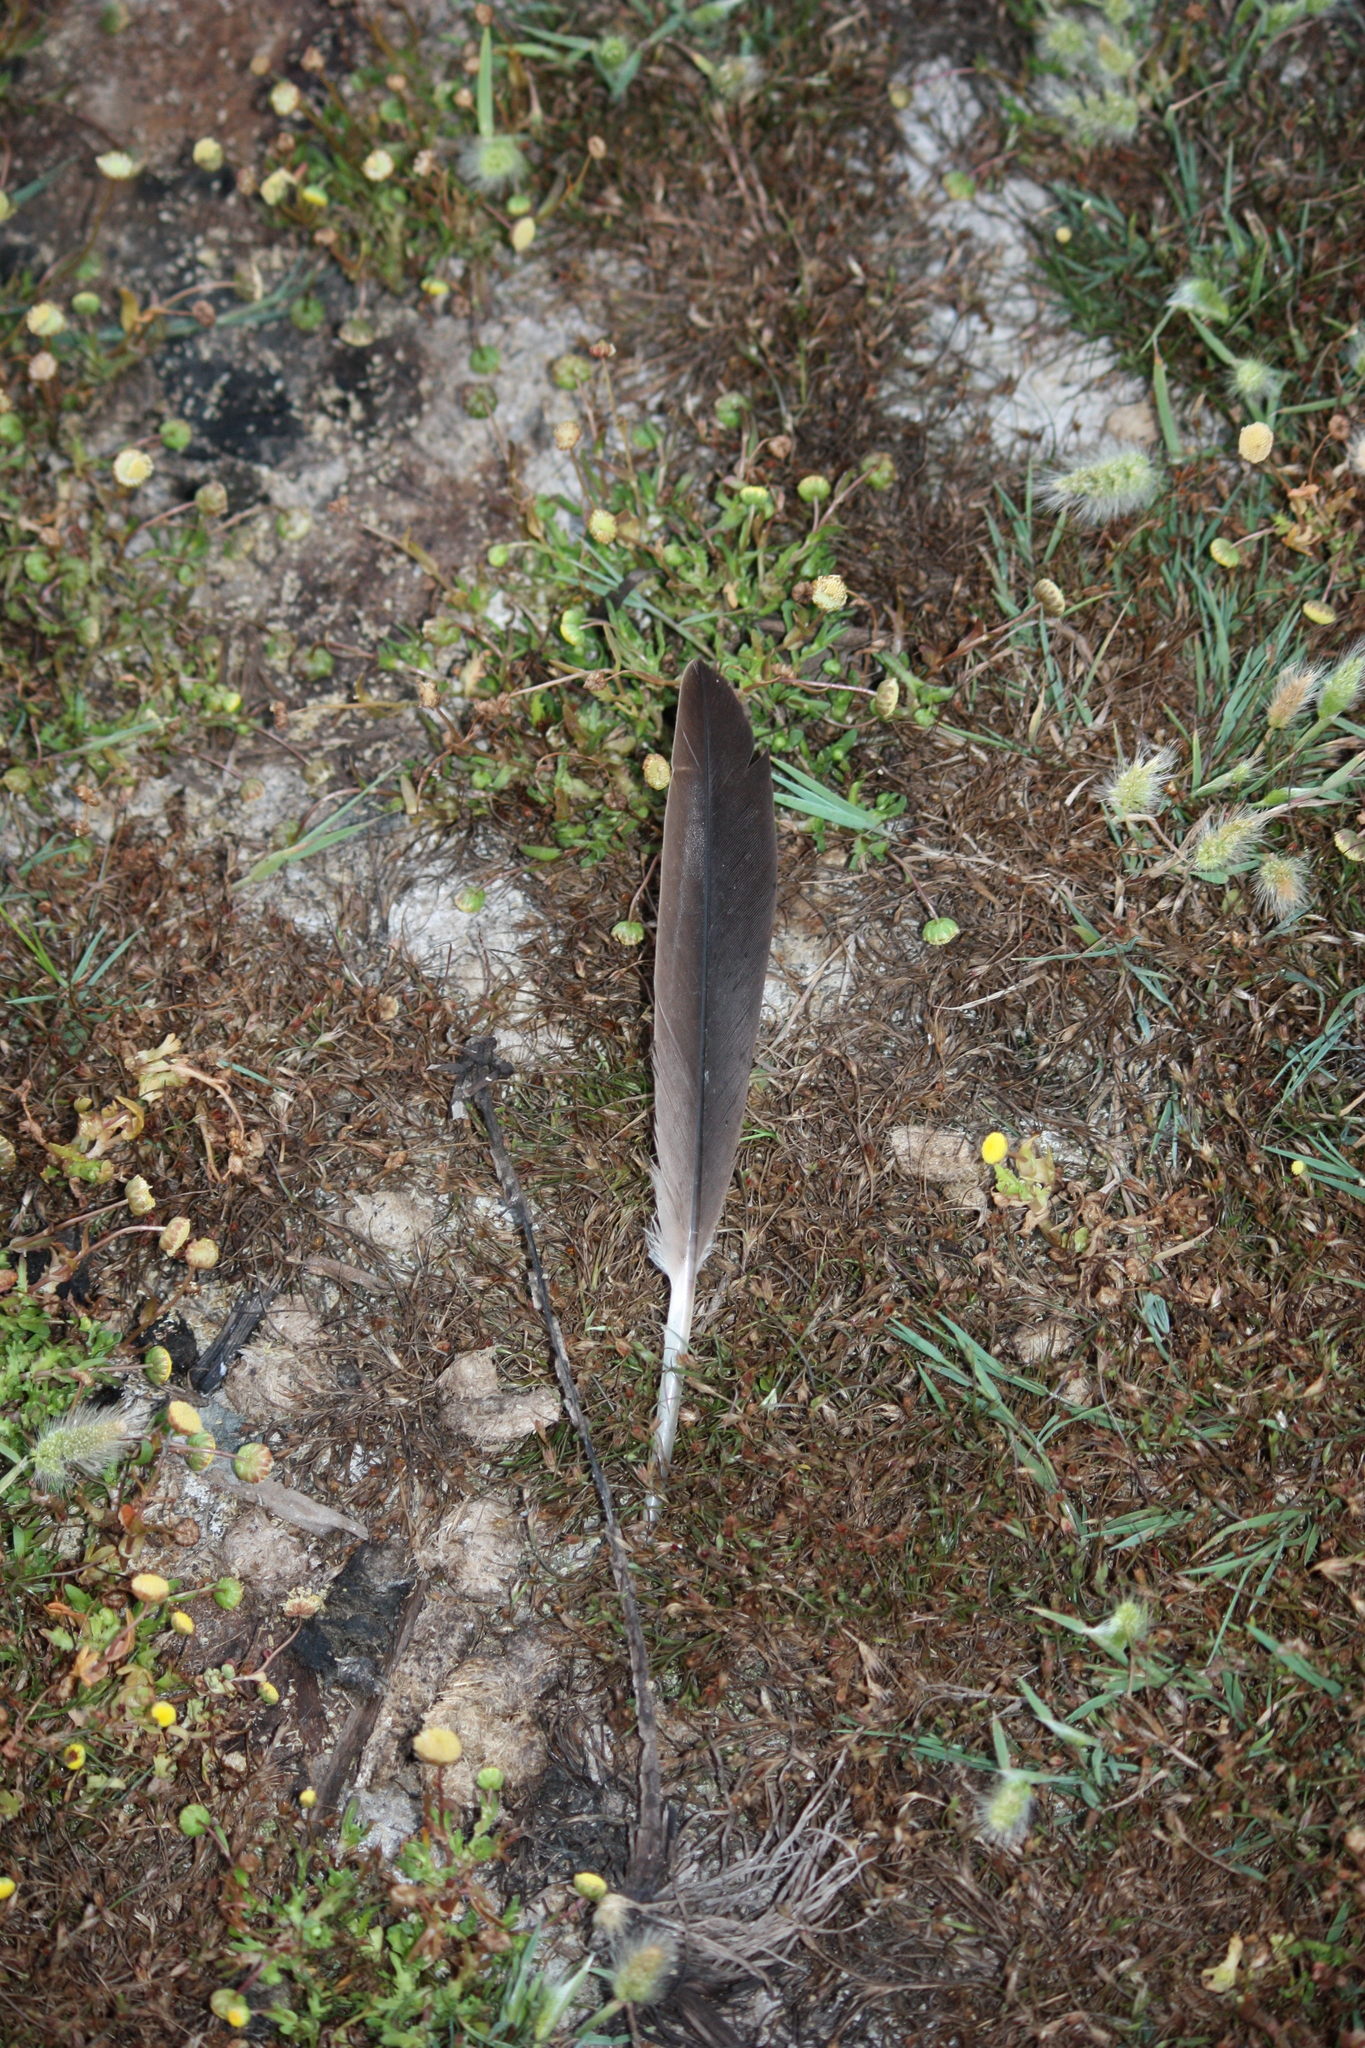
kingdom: Animalia
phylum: Chordata
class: Aves
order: Anseriformes
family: Anatidae
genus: Branta
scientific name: Branta canadensis
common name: Canada goose
